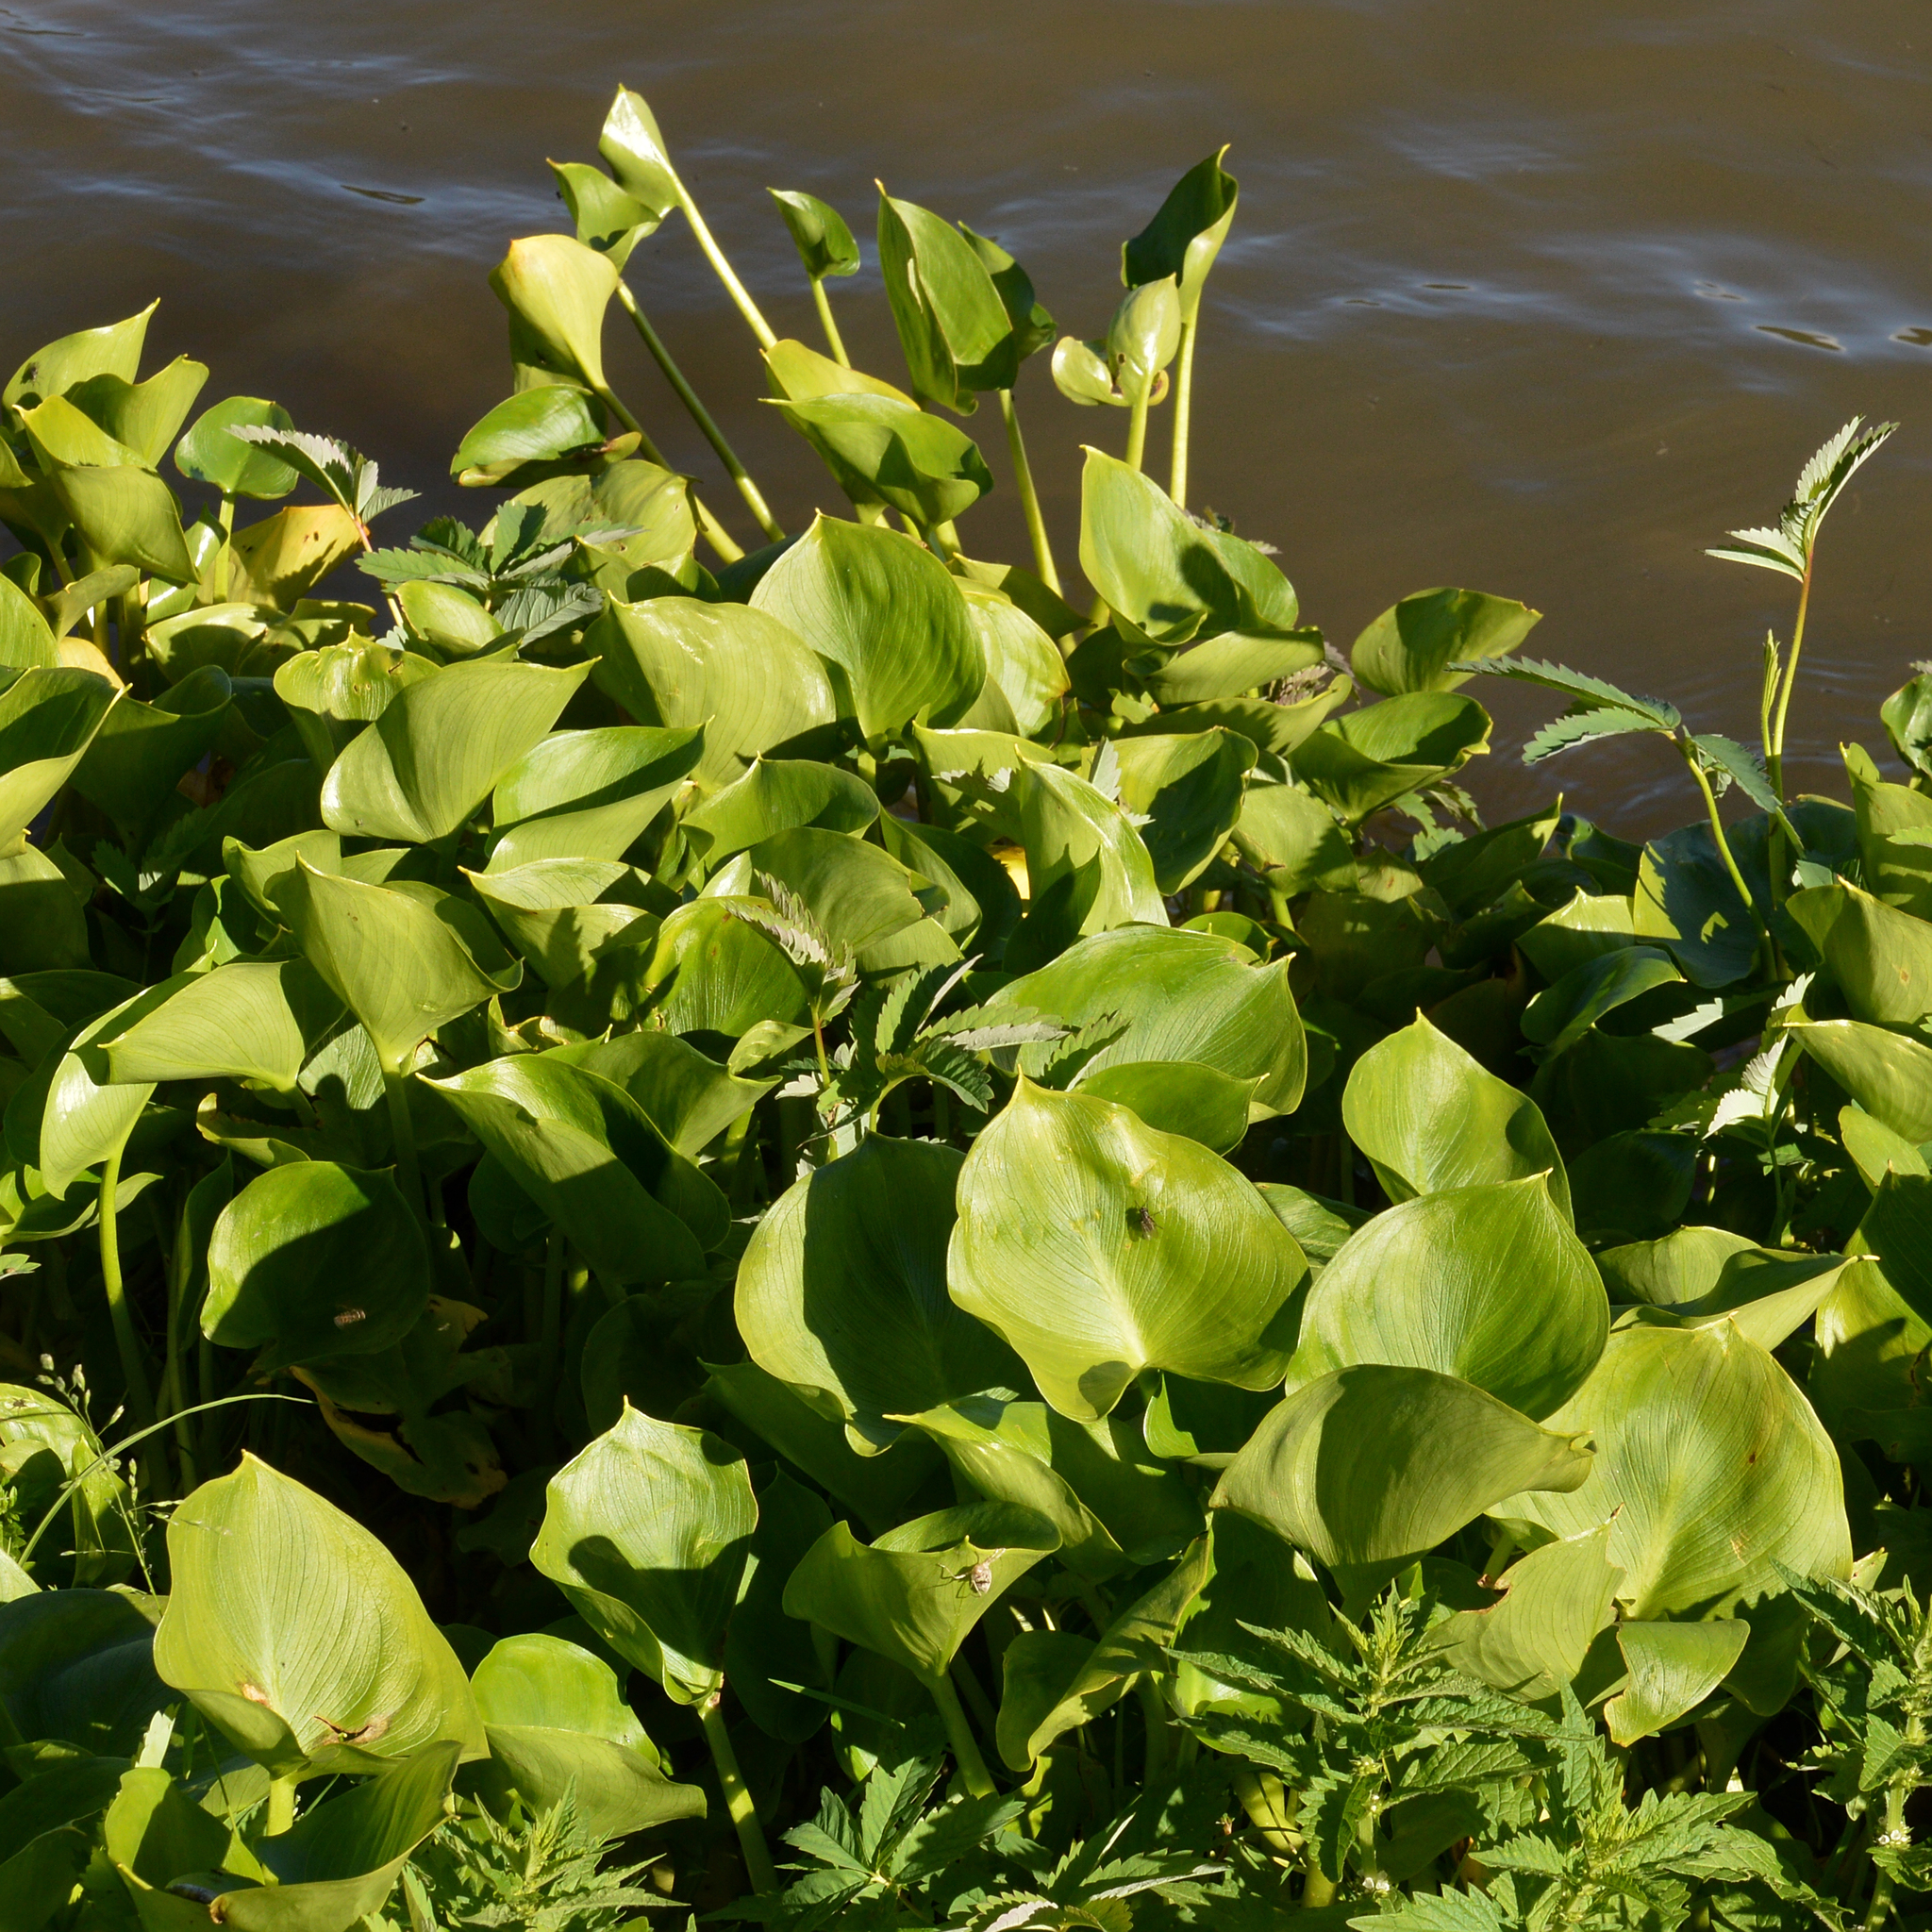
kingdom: Plantae
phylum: Tracheophyta
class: Liliopsida
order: Alismatales
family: Araceae
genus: Calla
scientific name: Calla palustris
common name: Bog arum
